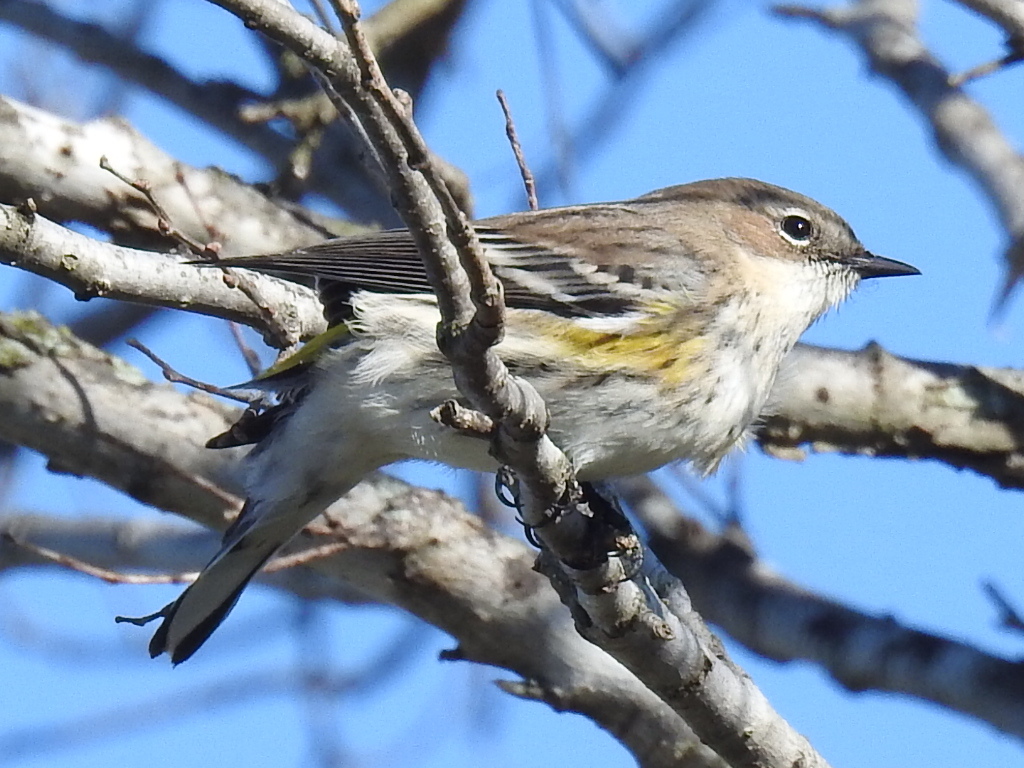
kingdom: Animalia
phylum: Chordata
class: Aves
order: Passeriformes
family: Parulidae
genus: Setophaga
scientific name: Setophaga coronata
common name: Myrtle warbler
